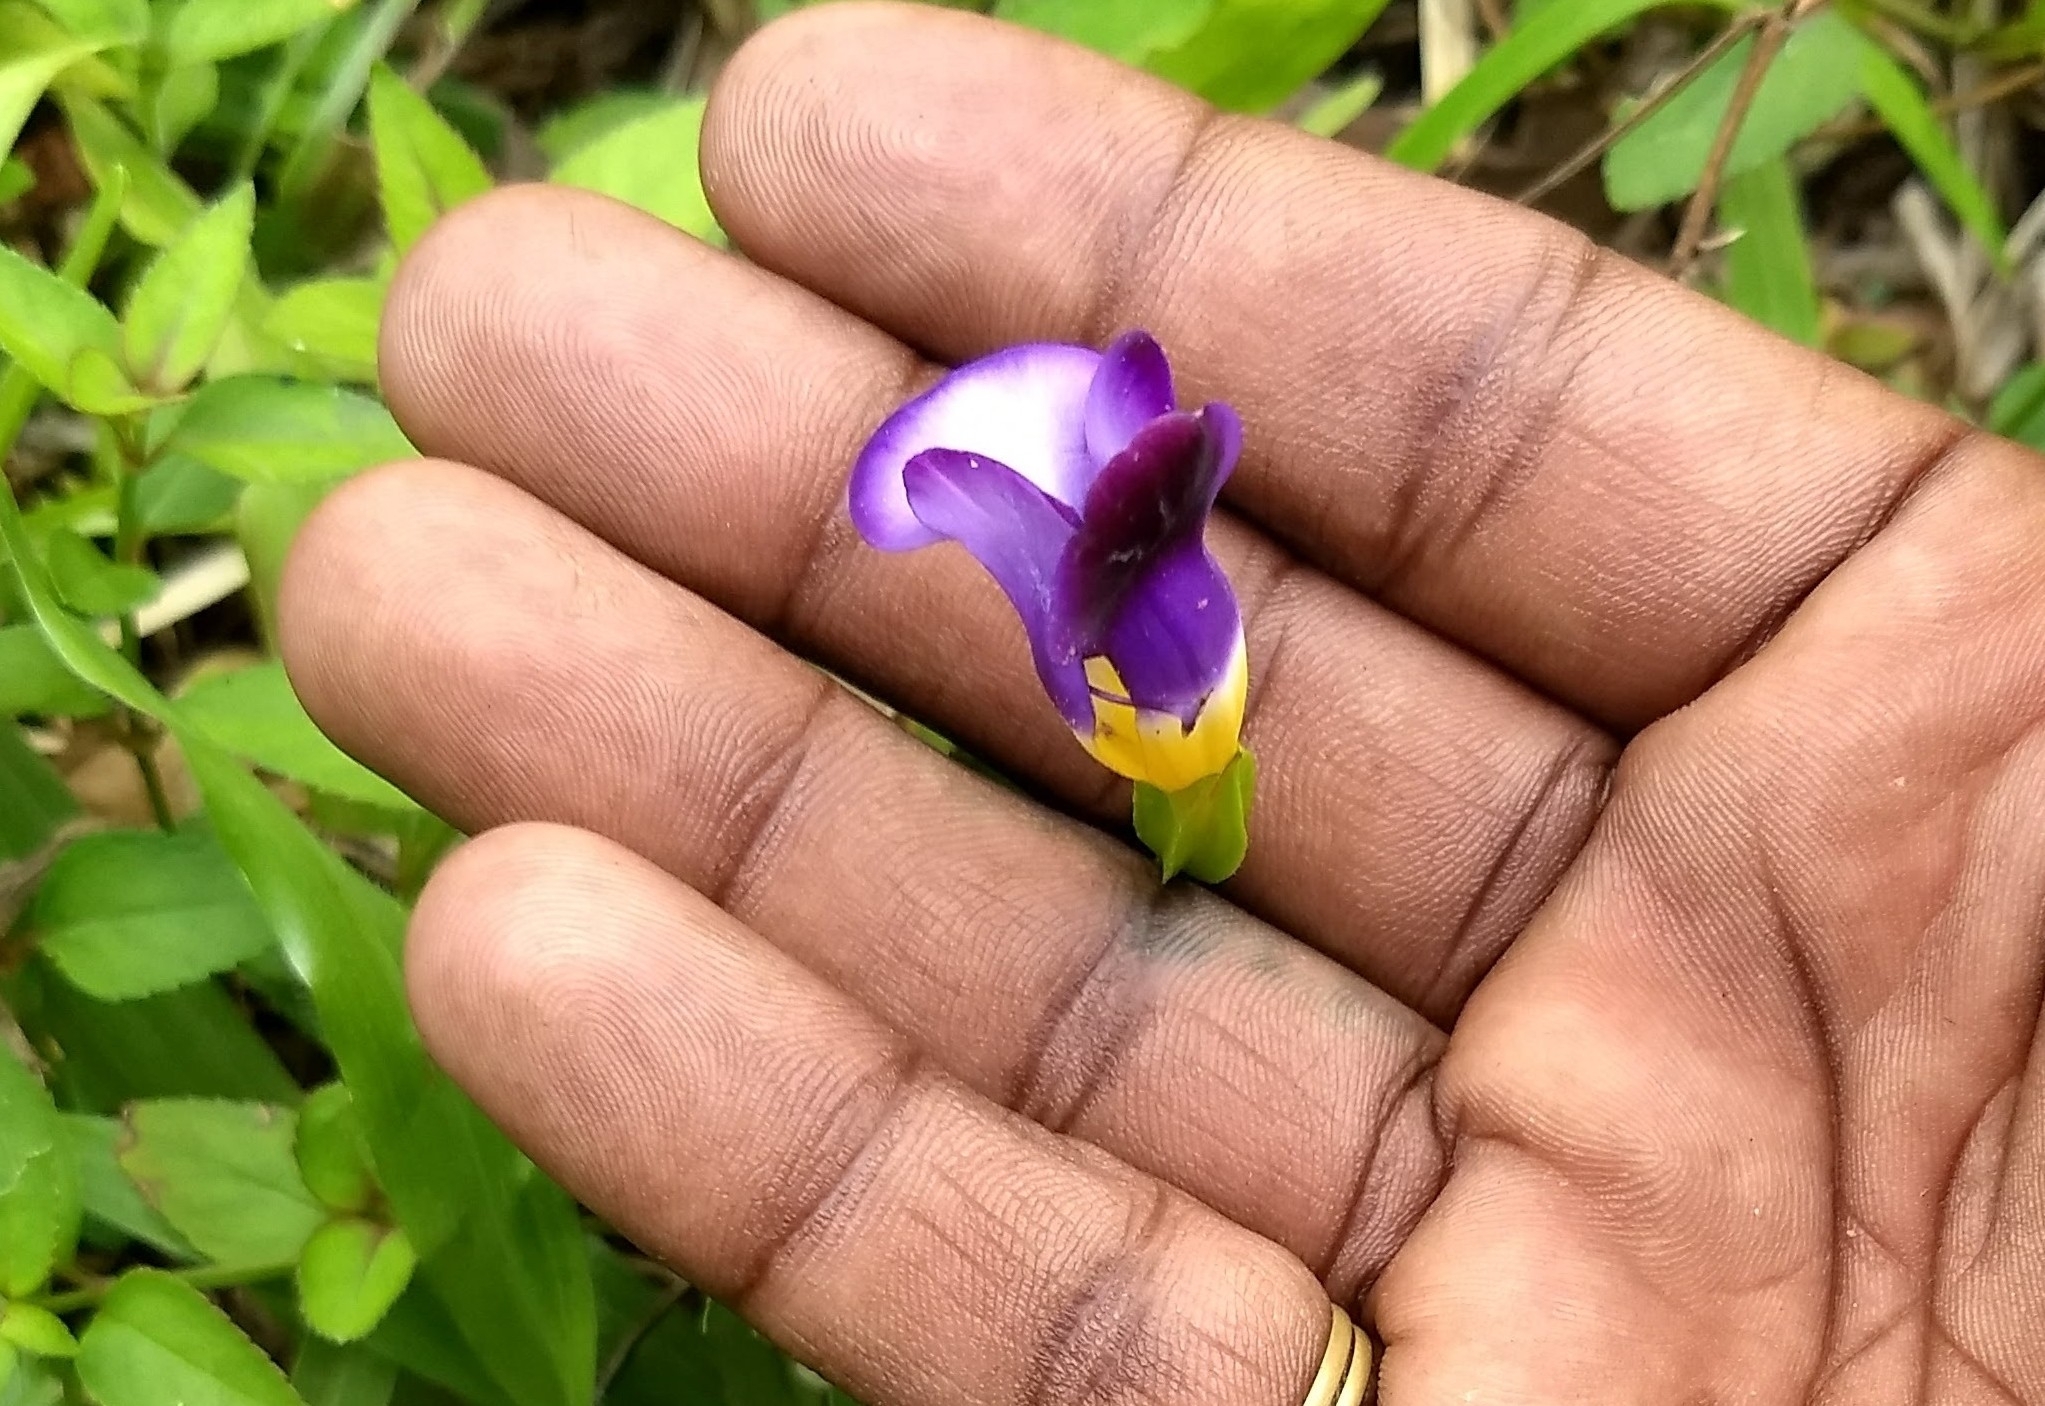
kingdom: Plantae
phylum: Tracheophyta
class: Magnoliopsida
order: Lamiales
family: Linderniaceae
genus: Torenia
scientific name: Torenia fournieri
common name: Bluewings
